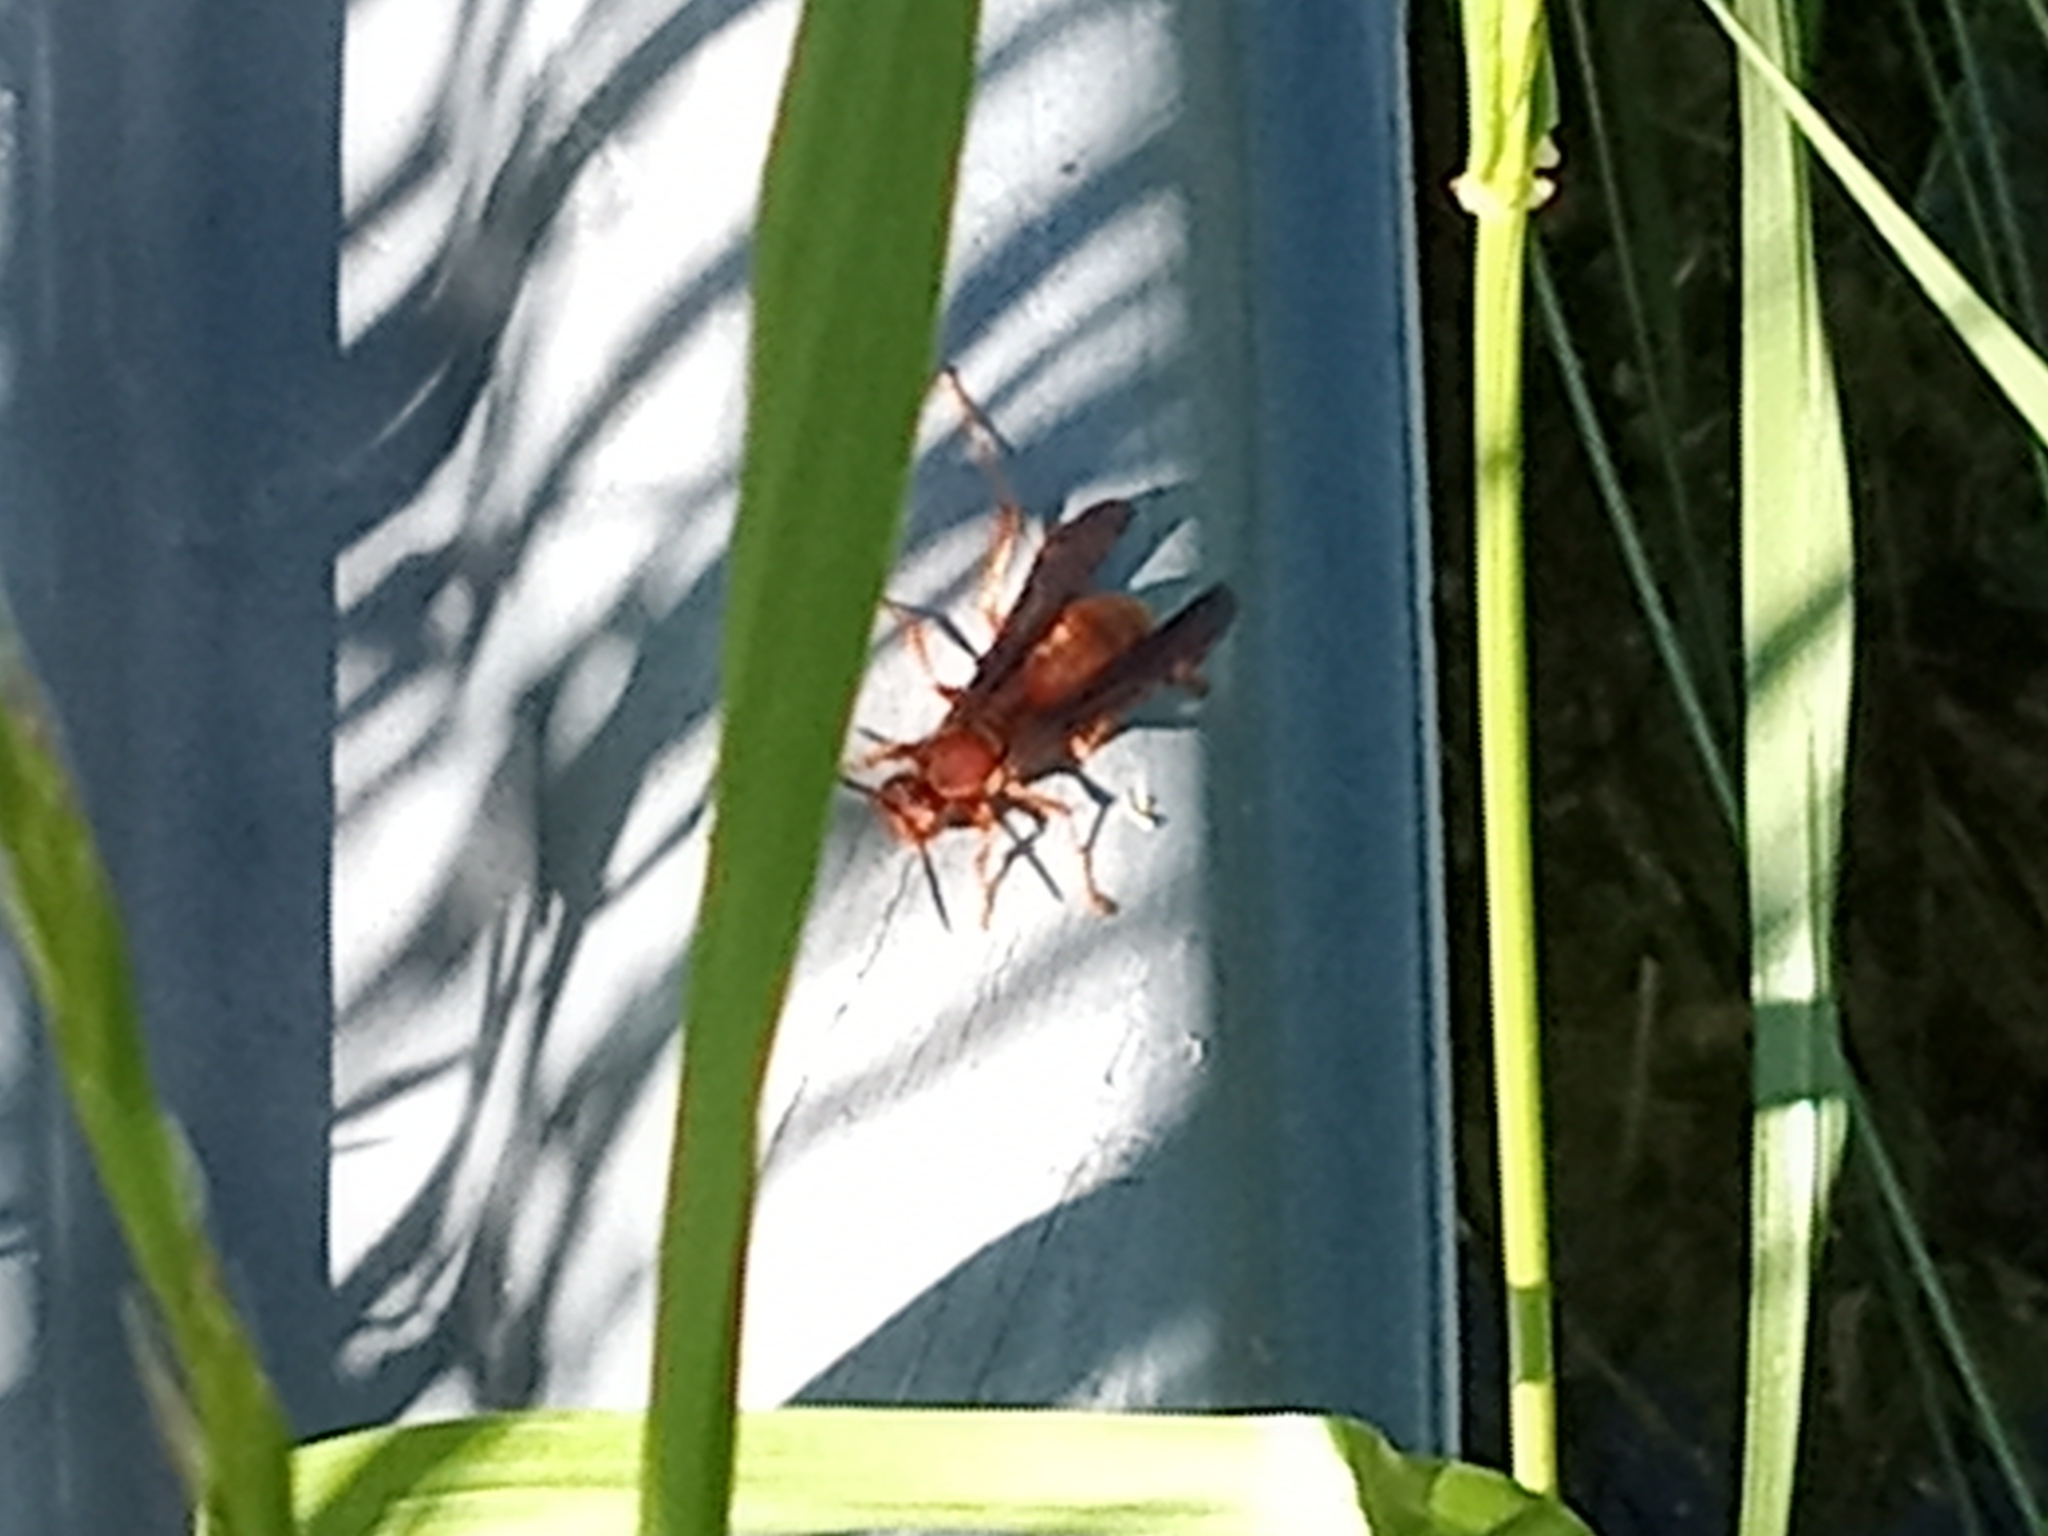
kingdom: Animalia
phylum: Arthropoda
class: Insecta
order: Hymenoptera
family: Eumenidae
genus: Polistes
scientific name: Polistes carolina
